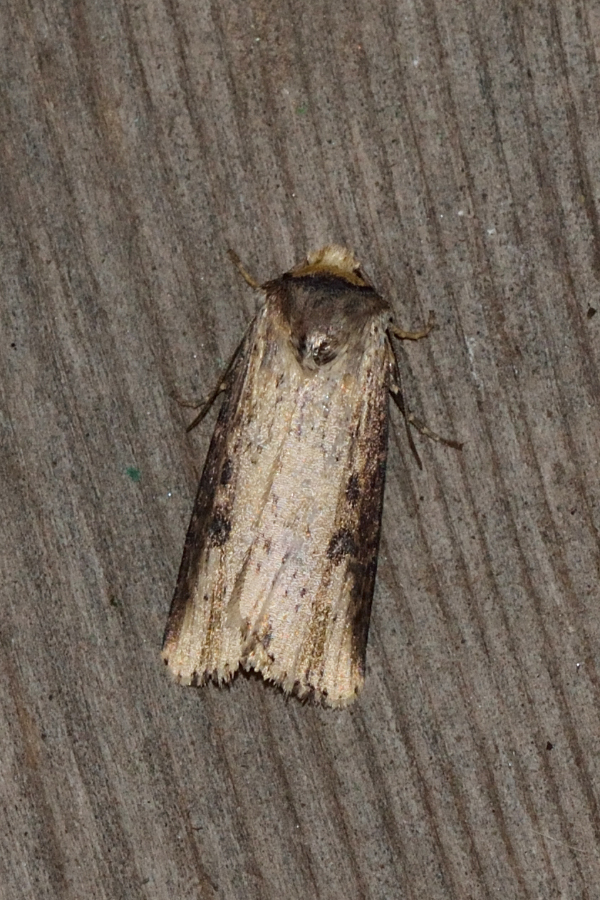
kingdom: Animalia
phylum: Arthropoda
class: Insecta
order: Lepidoptera
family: Noctuidae
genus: Axylia
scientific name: Axylia putris
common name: Flame
